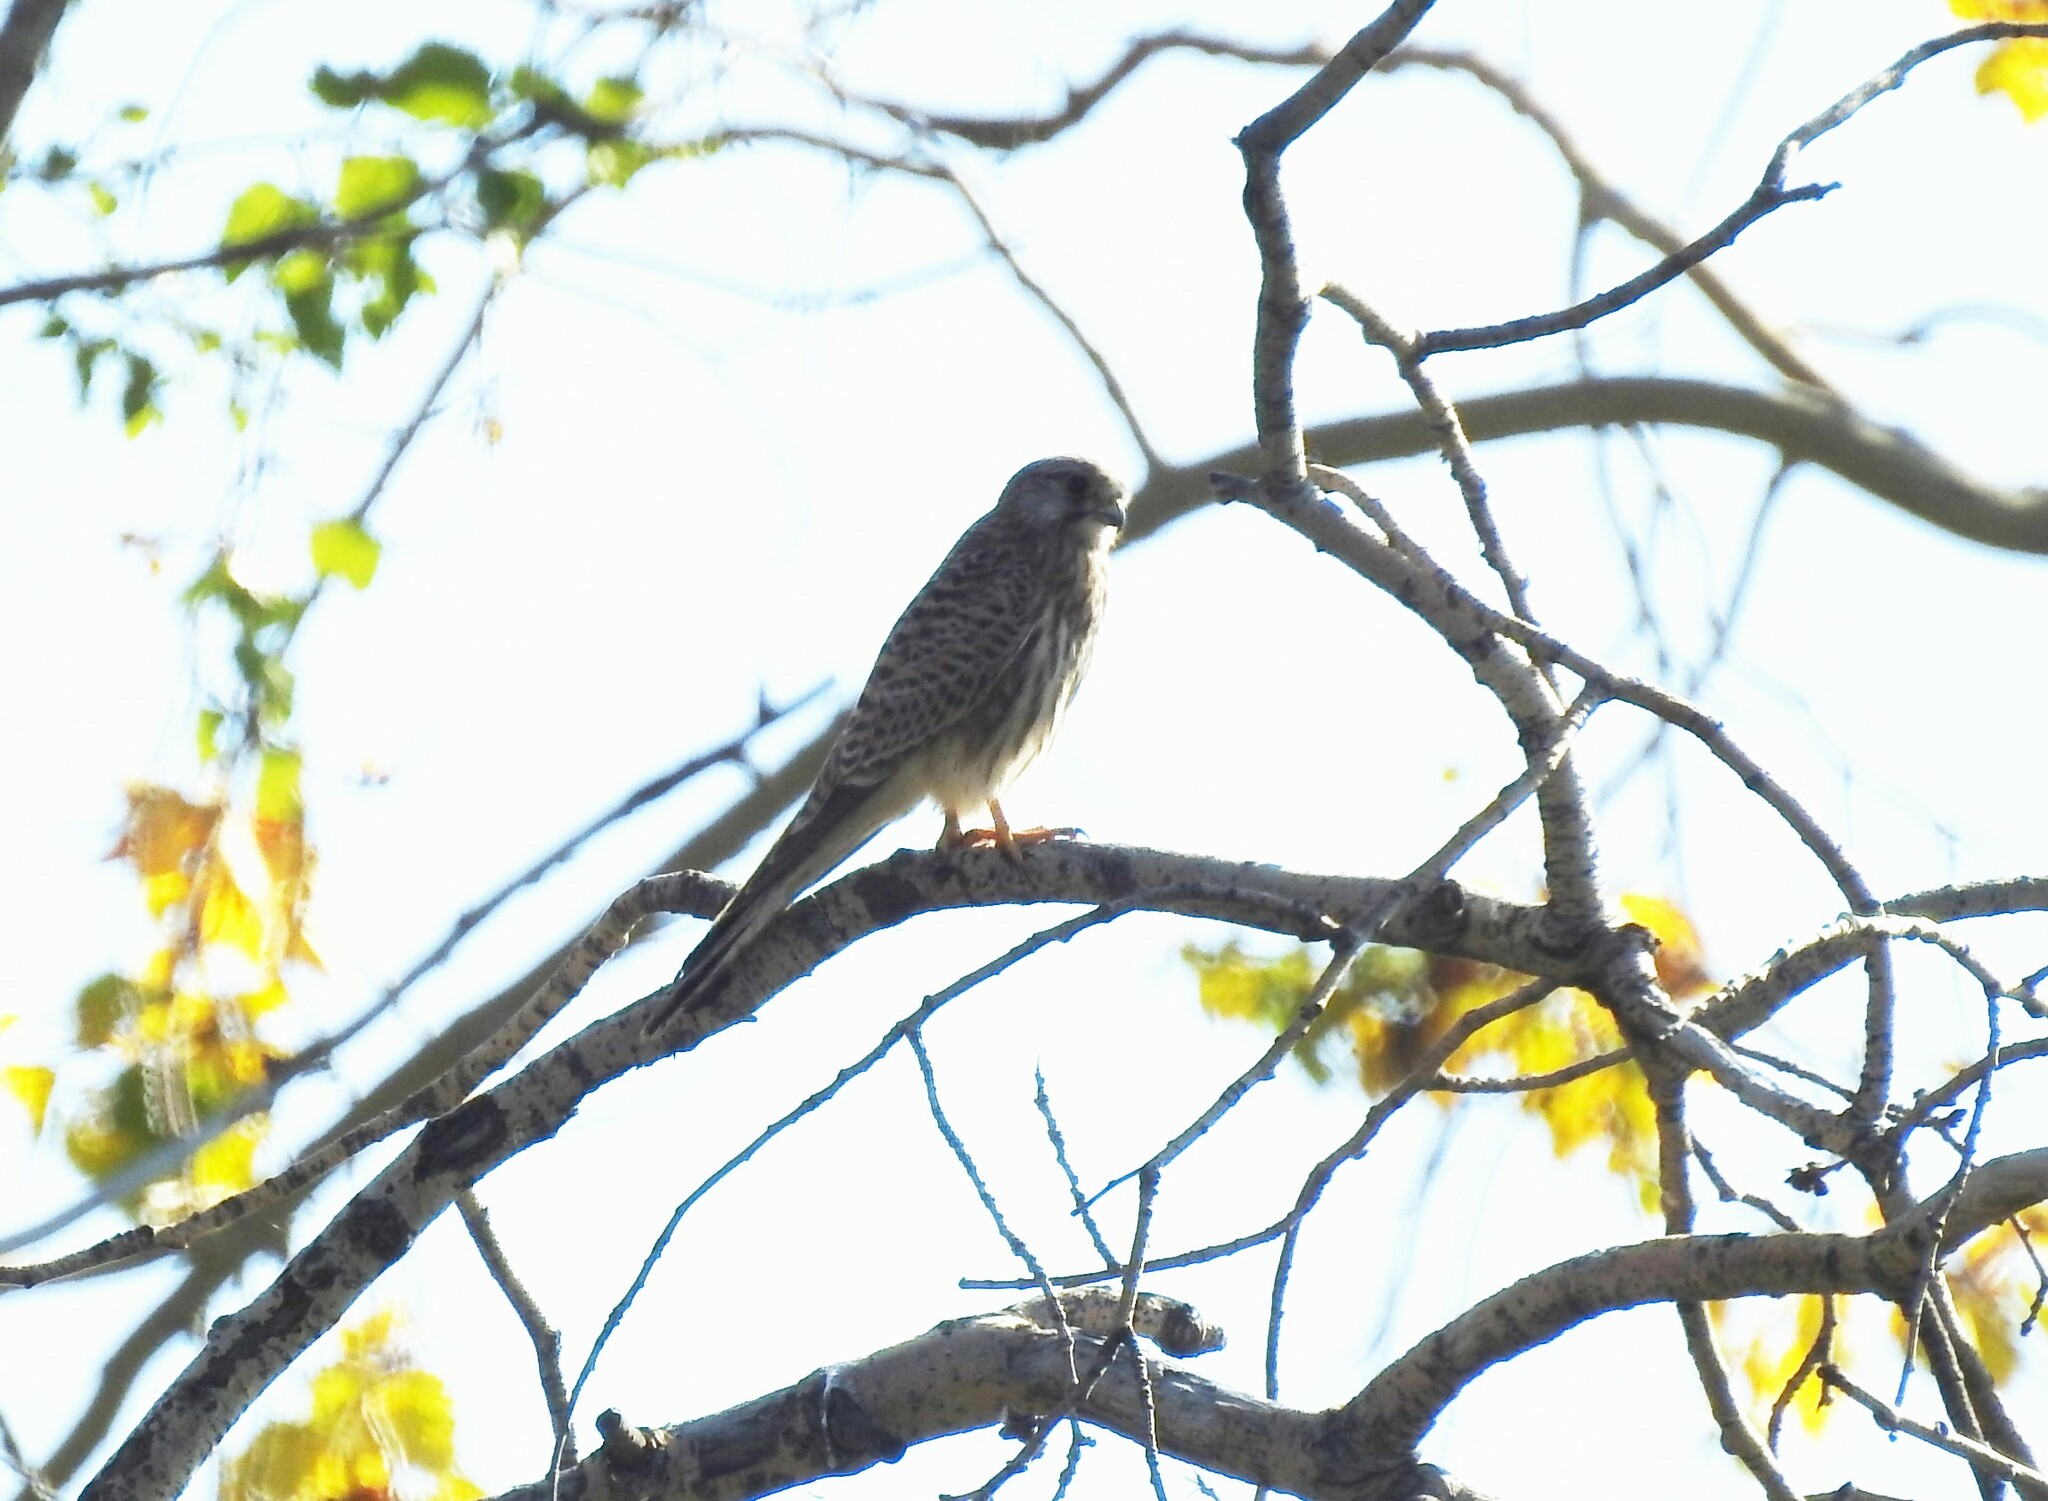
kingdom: Animalia
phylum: Chordata
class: Aves
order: Falconiformes
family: Falconidae
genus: Falco
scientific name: Falco tinnunculus
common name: Common kestrel
